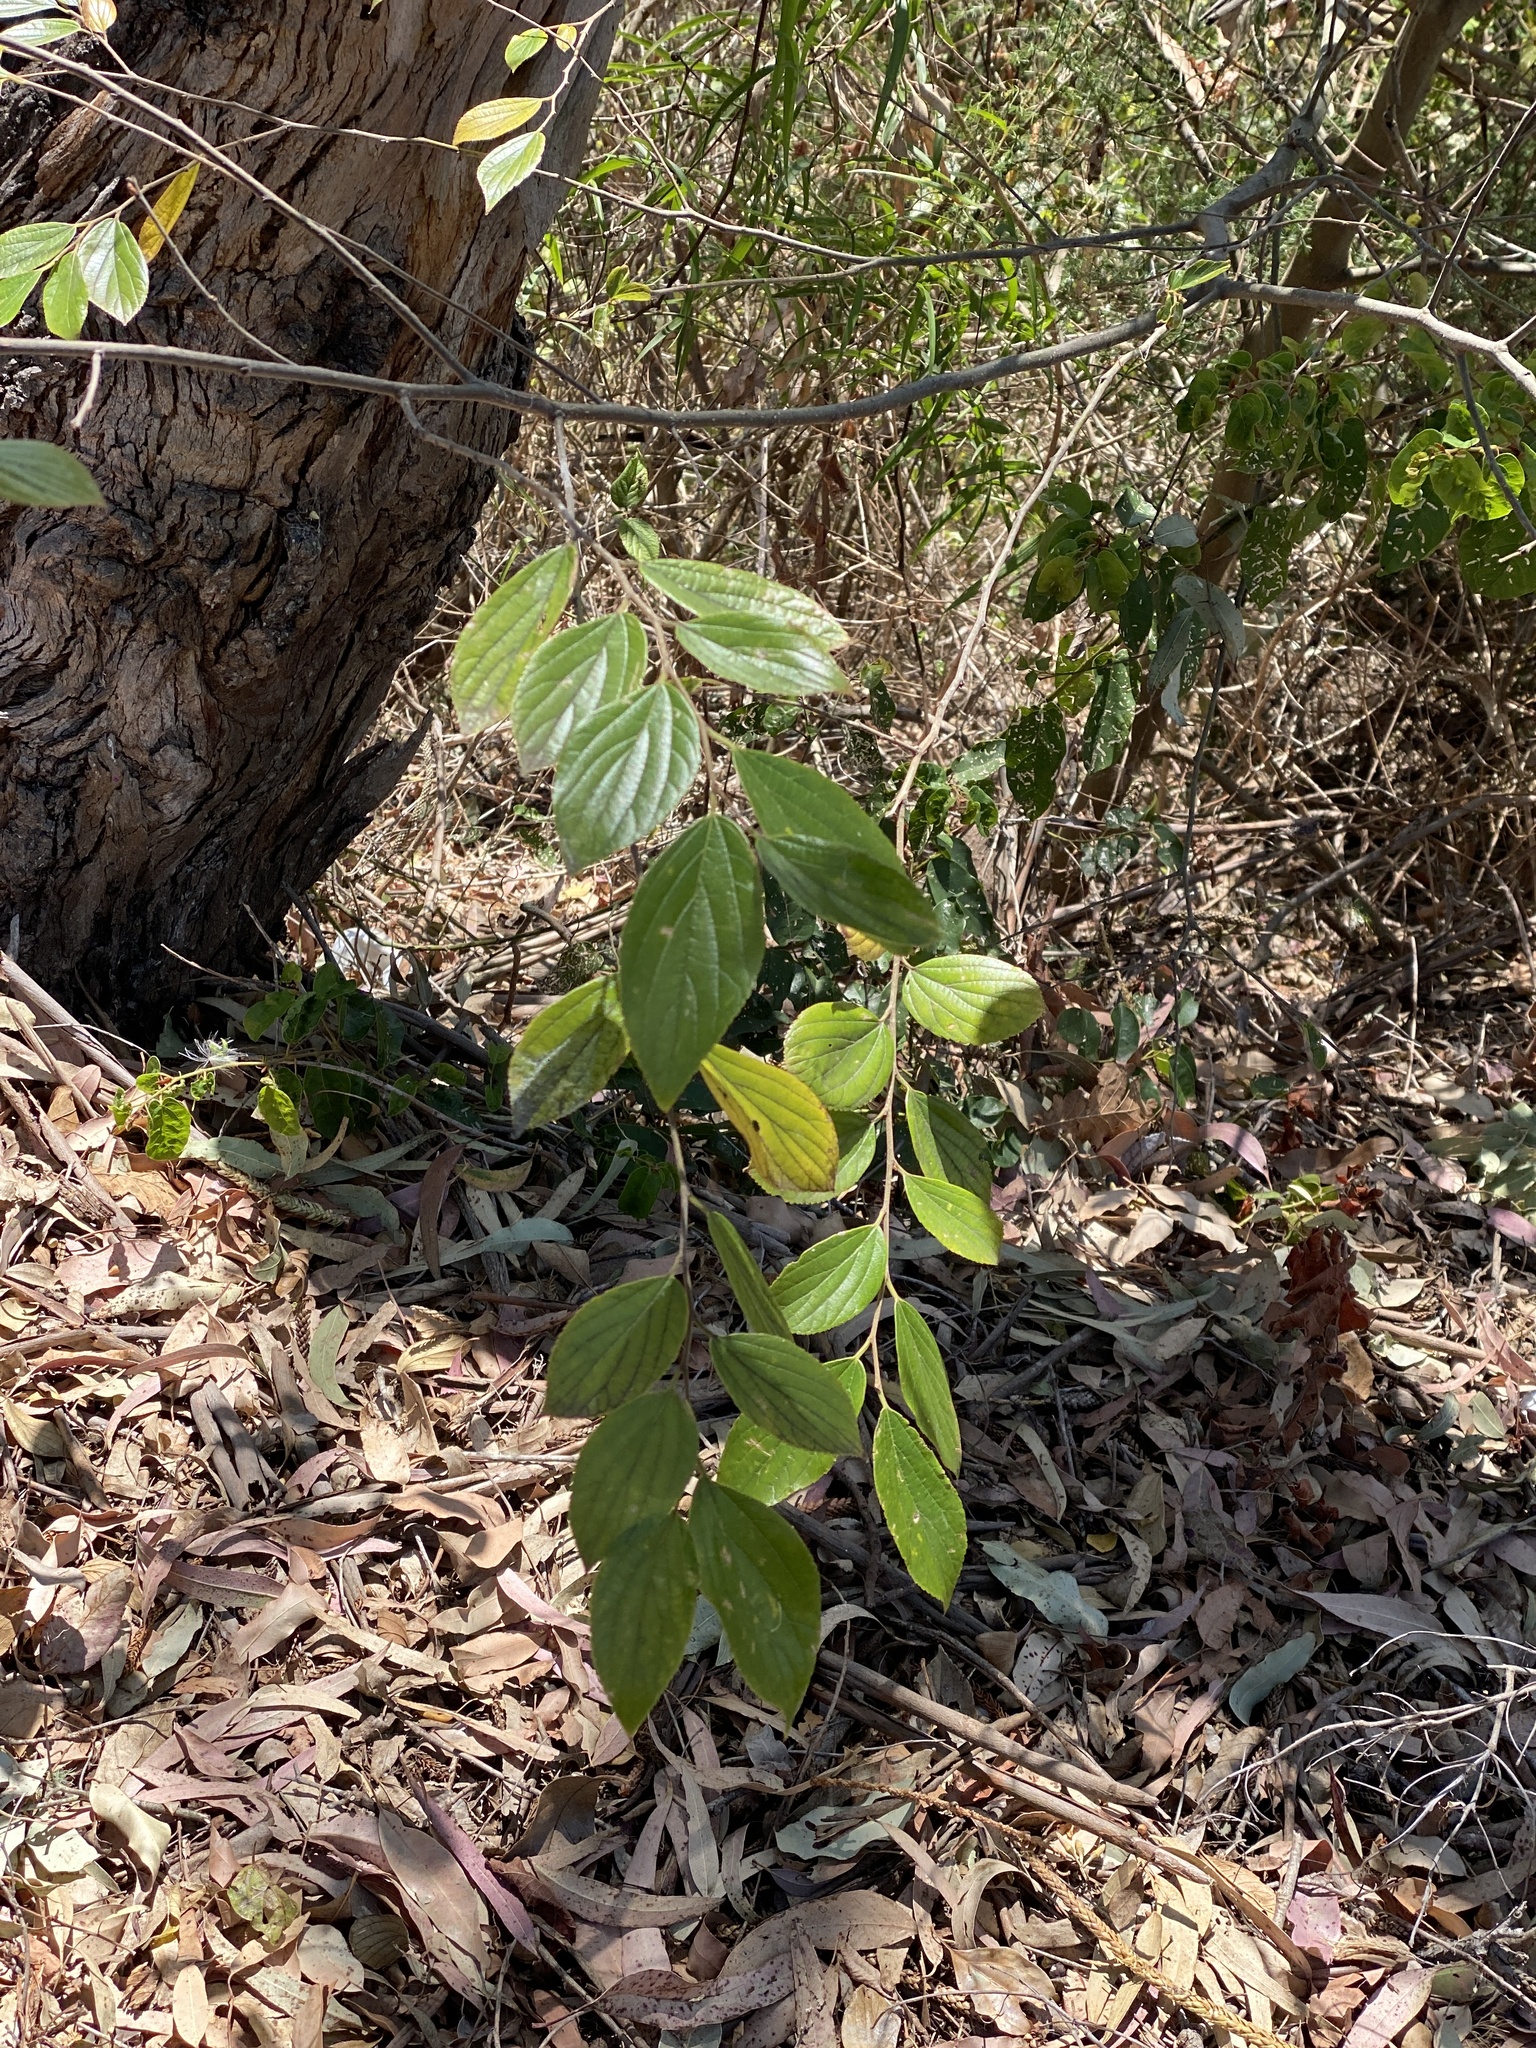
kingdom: Plantae
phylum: Tracheophyta
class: Magnoliopsida
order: Rosales
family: Cannabaceae
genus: Celtis
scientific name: Celtis sinensis
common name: Chinese hackberry
